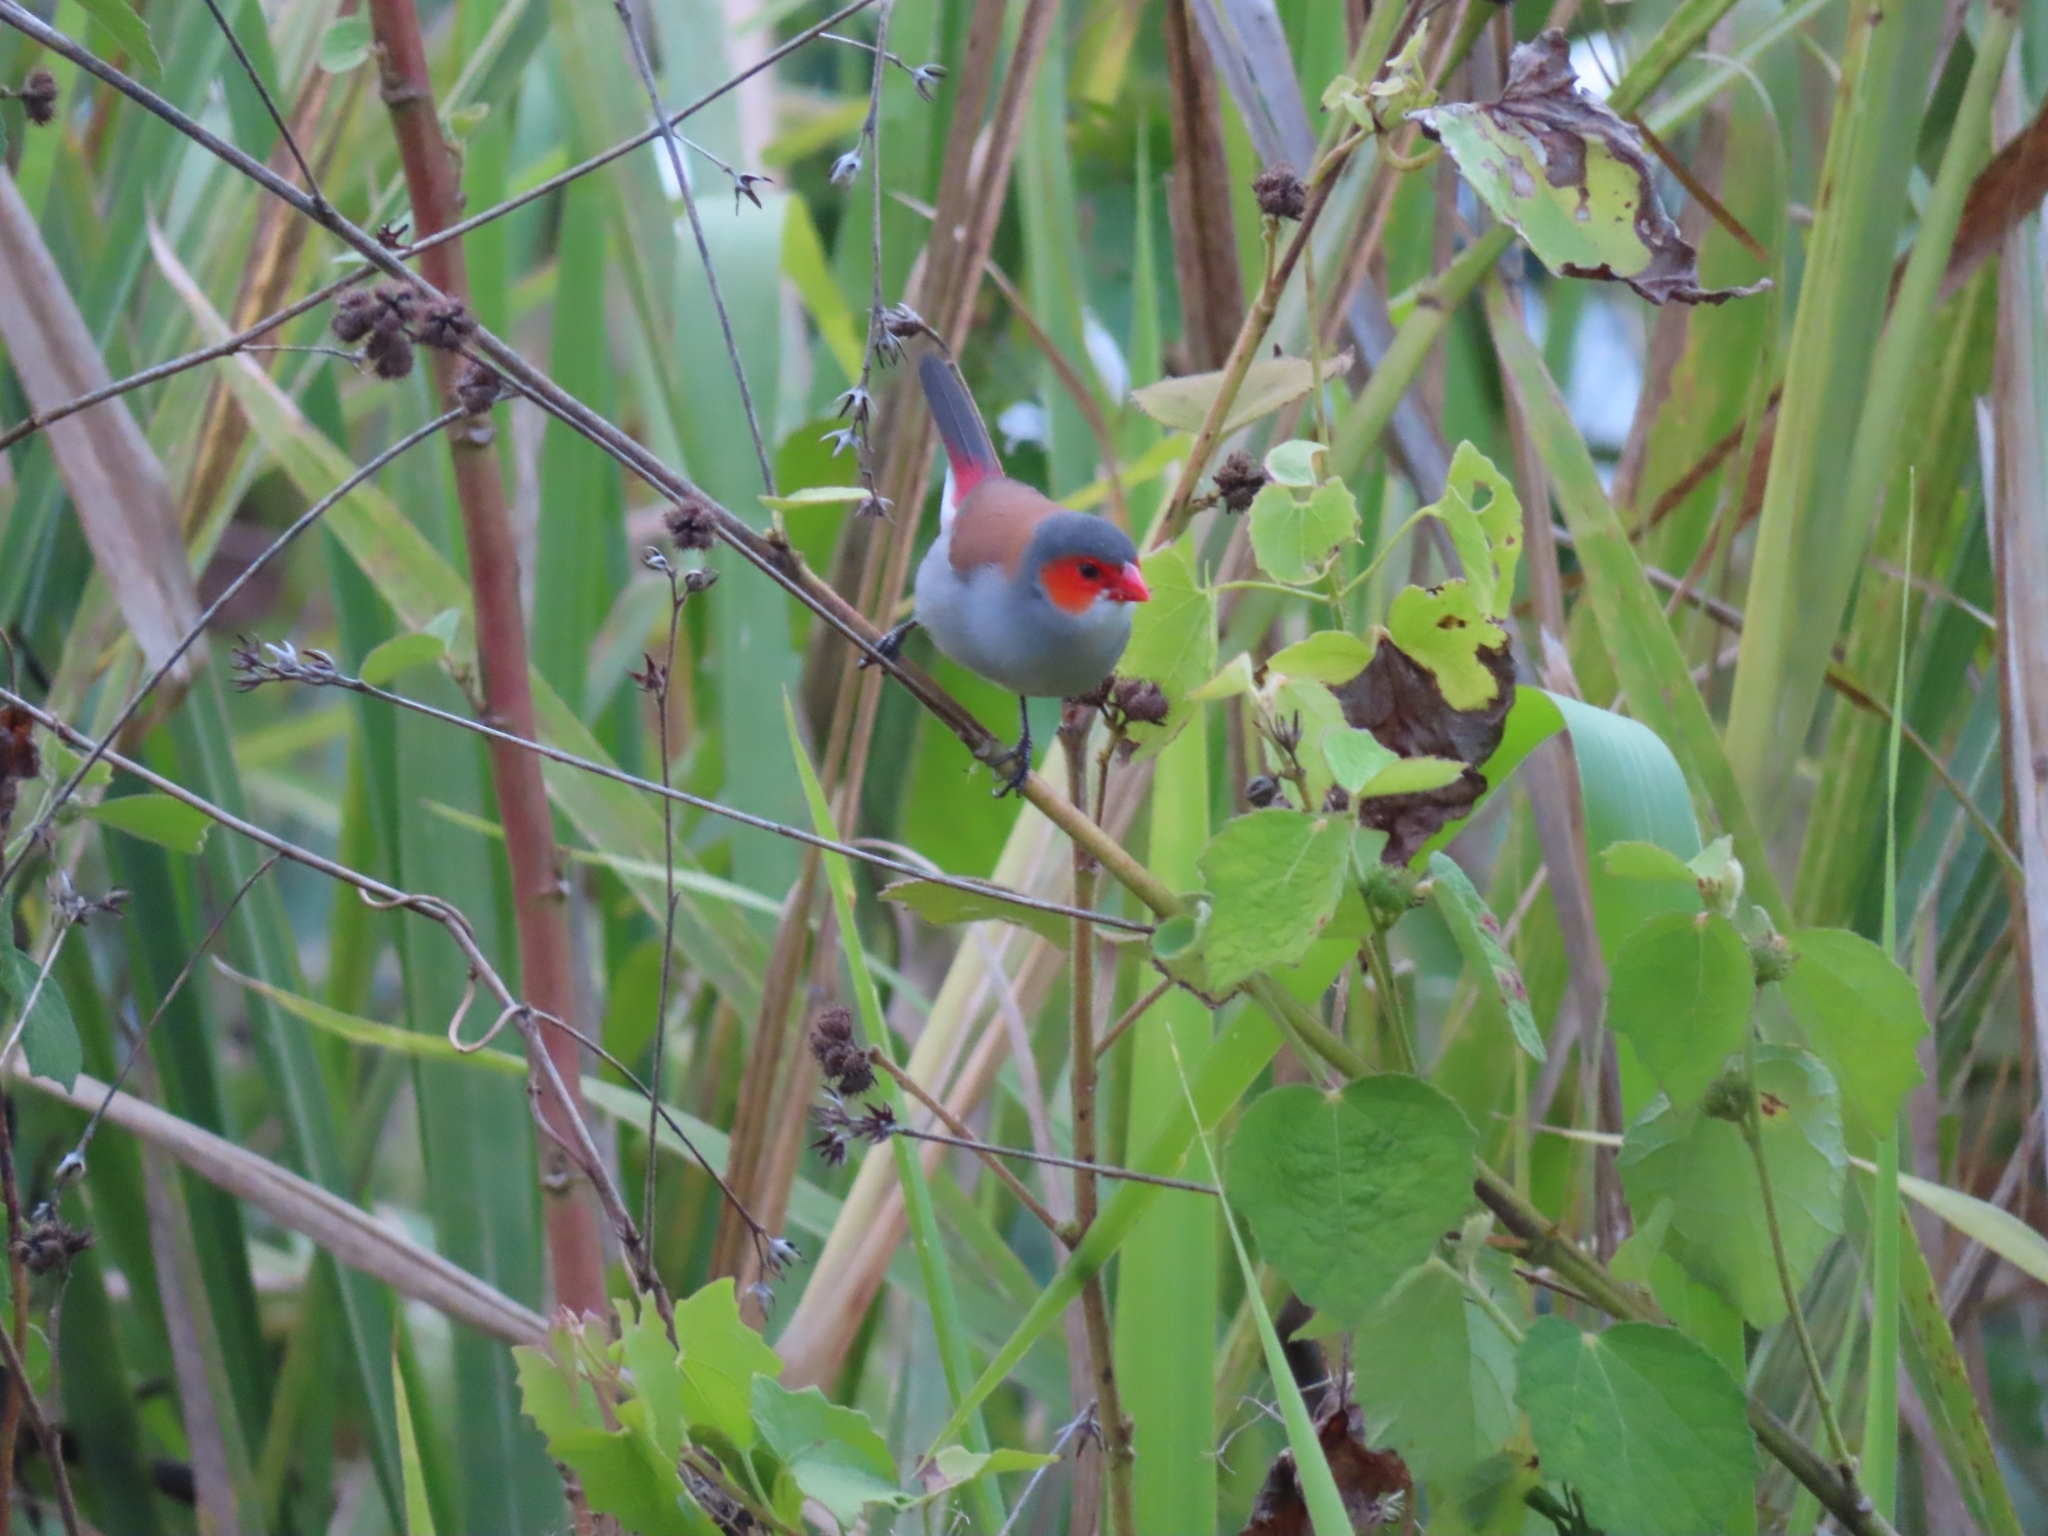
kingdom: Animalia
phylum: Chordata
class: Aves
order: Passeriformes
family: Estrildidae
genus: Estrilda
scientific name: Estrilda melpoda
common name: Orange-cheeked waxbill
